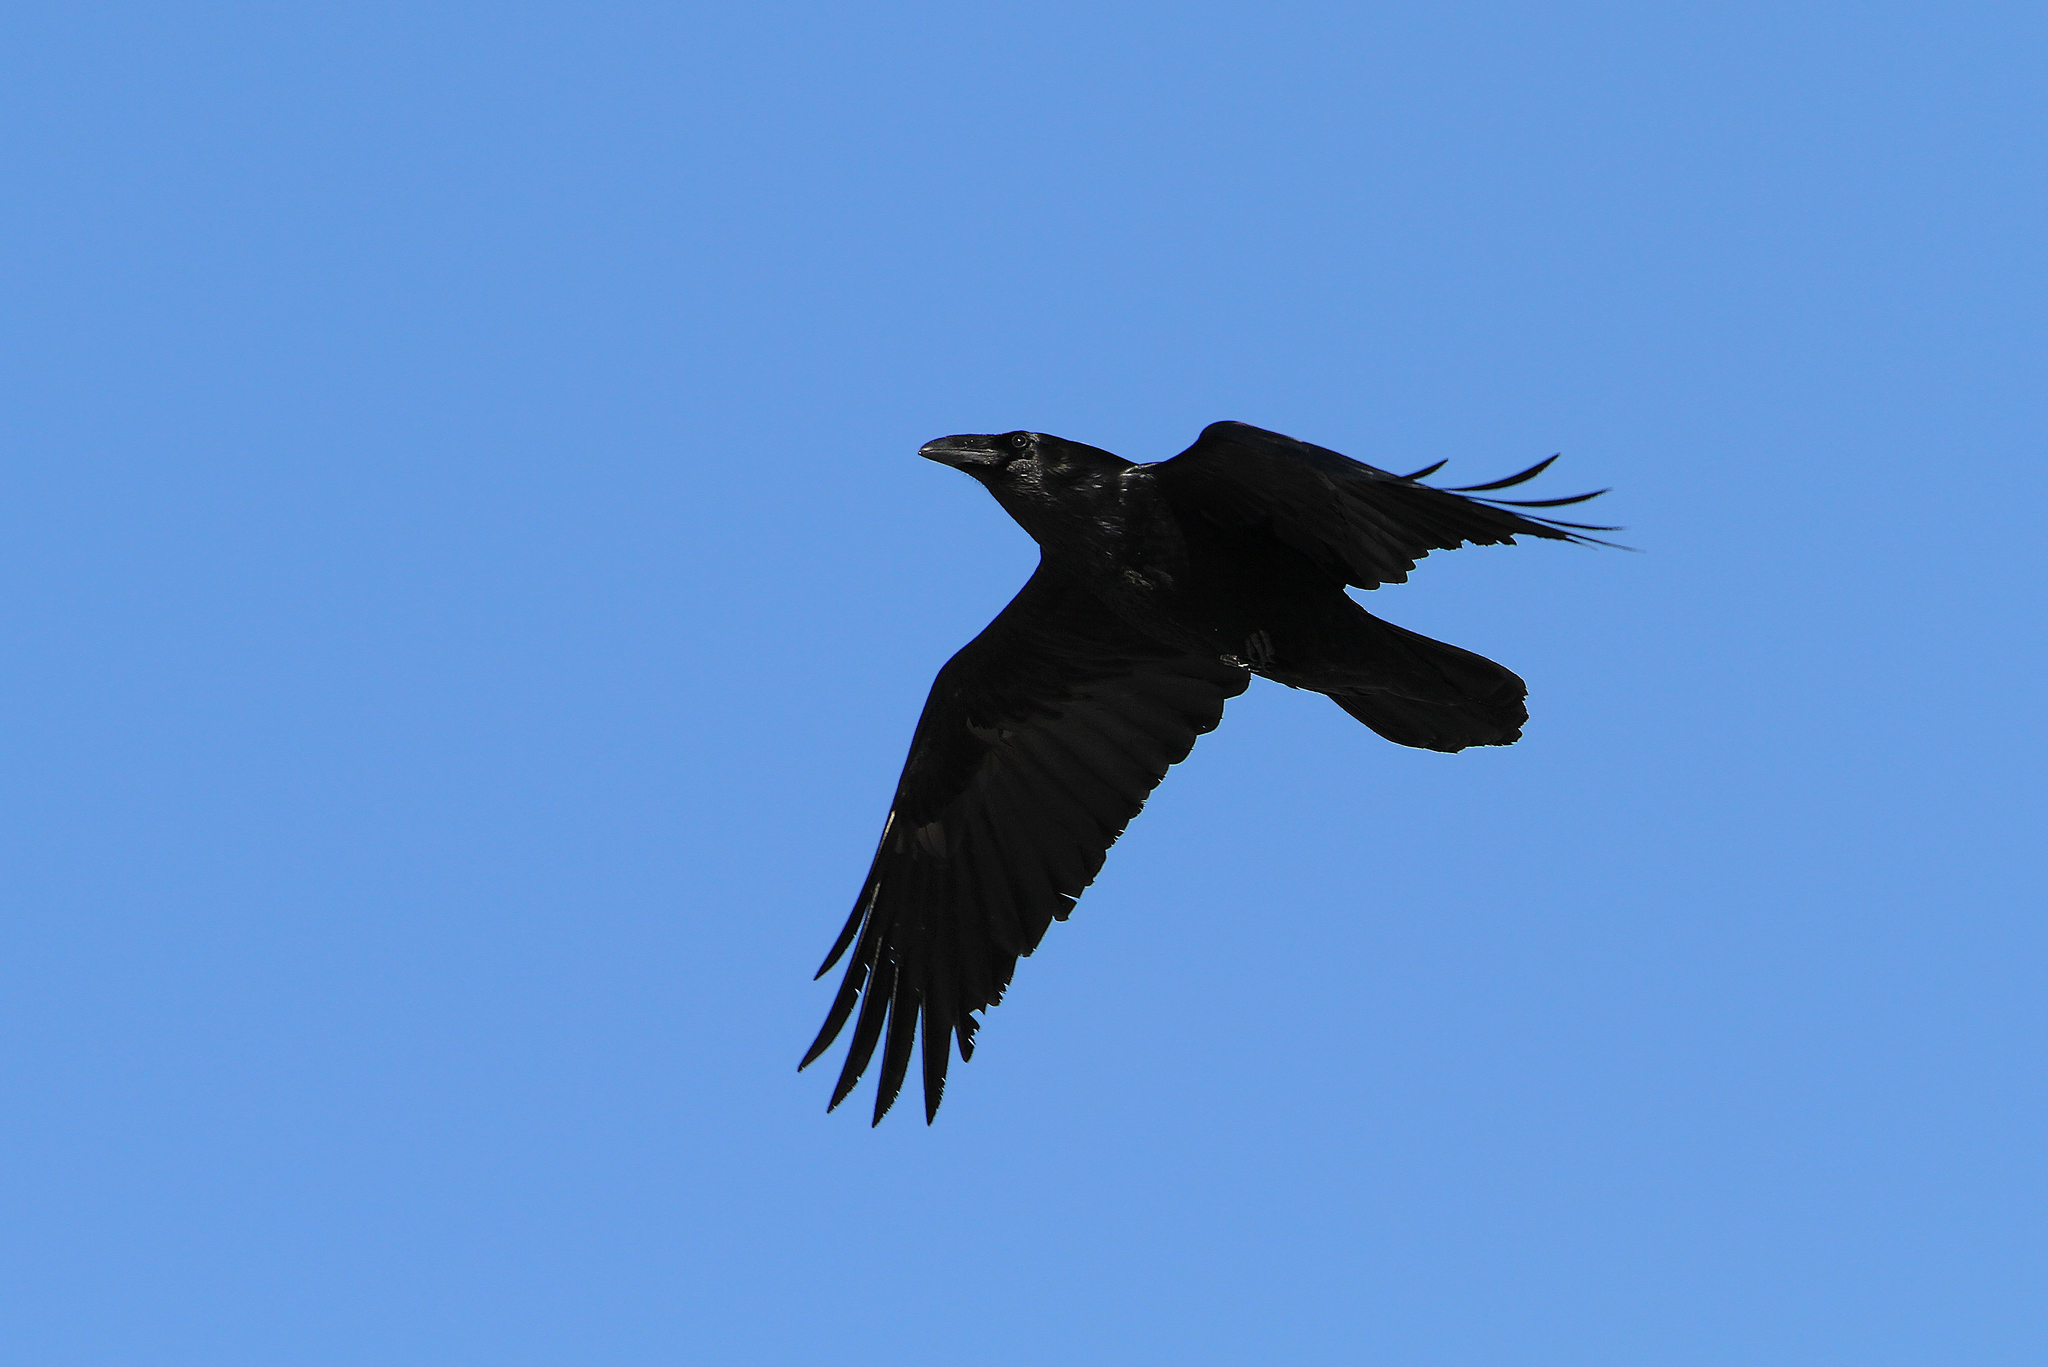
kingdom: Animalia
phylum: Chordata
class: Aves
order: Passeriformes
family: Corvidae
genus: Corvus
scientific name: Corvus corax
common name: Common raven
